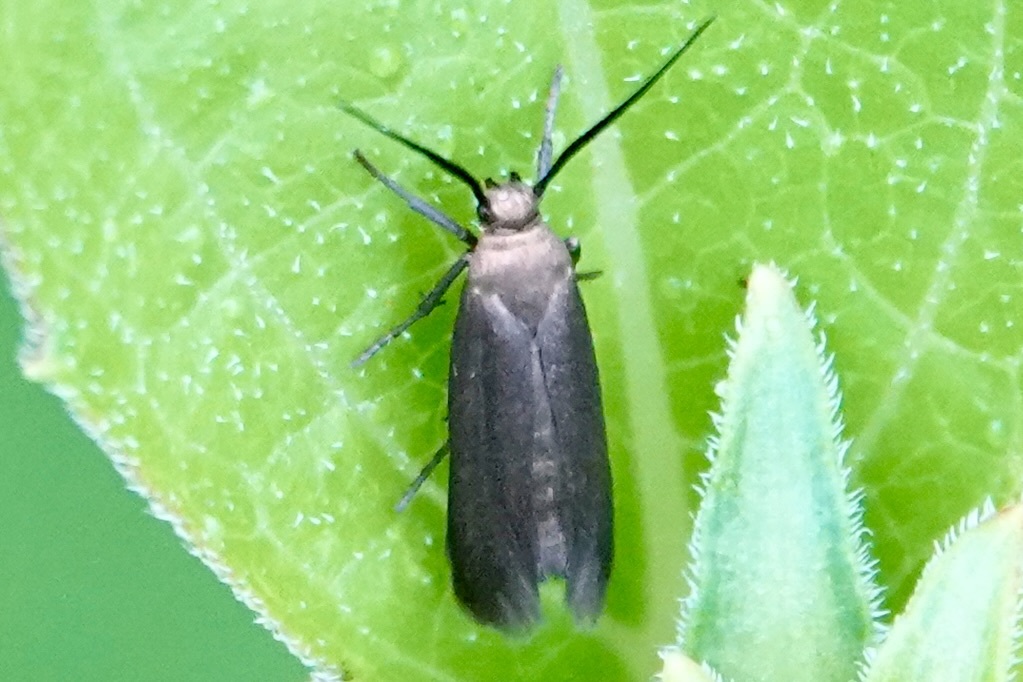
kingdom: Animalia
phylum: Arthropoda
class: Insecta
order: Lepidoptera
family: Scythrididae
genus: Scythris
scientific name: Scythris fuscicomella
